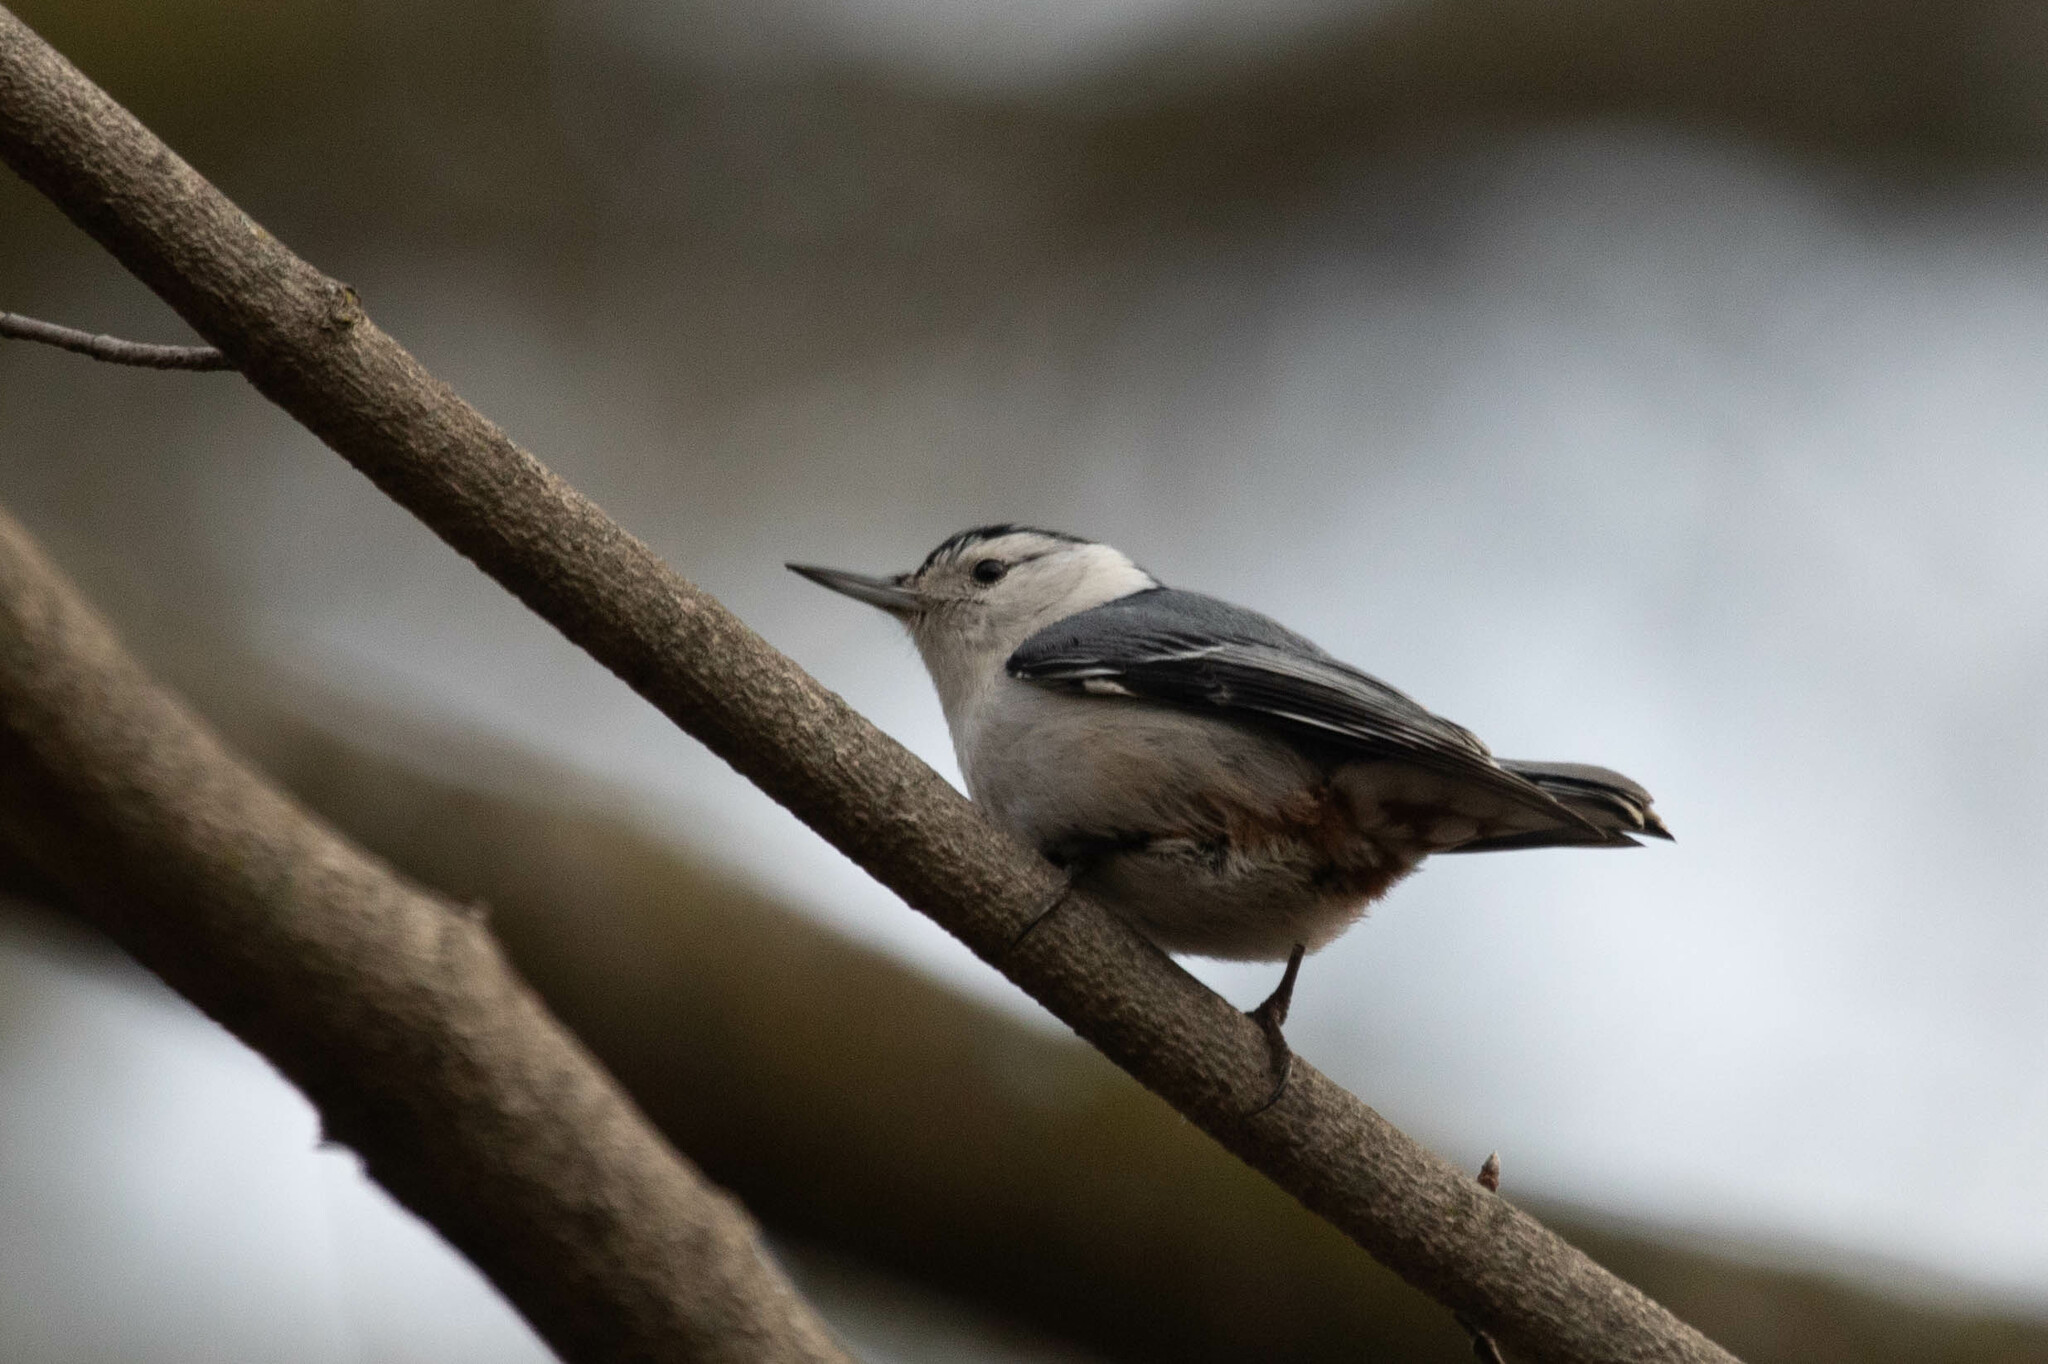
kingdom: Animalia
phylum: Chordata
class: Aves
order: Passeriformes
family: Sittidae
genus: Sitta
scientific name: Sitta carolinensis
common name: White-breasted nuthatch
